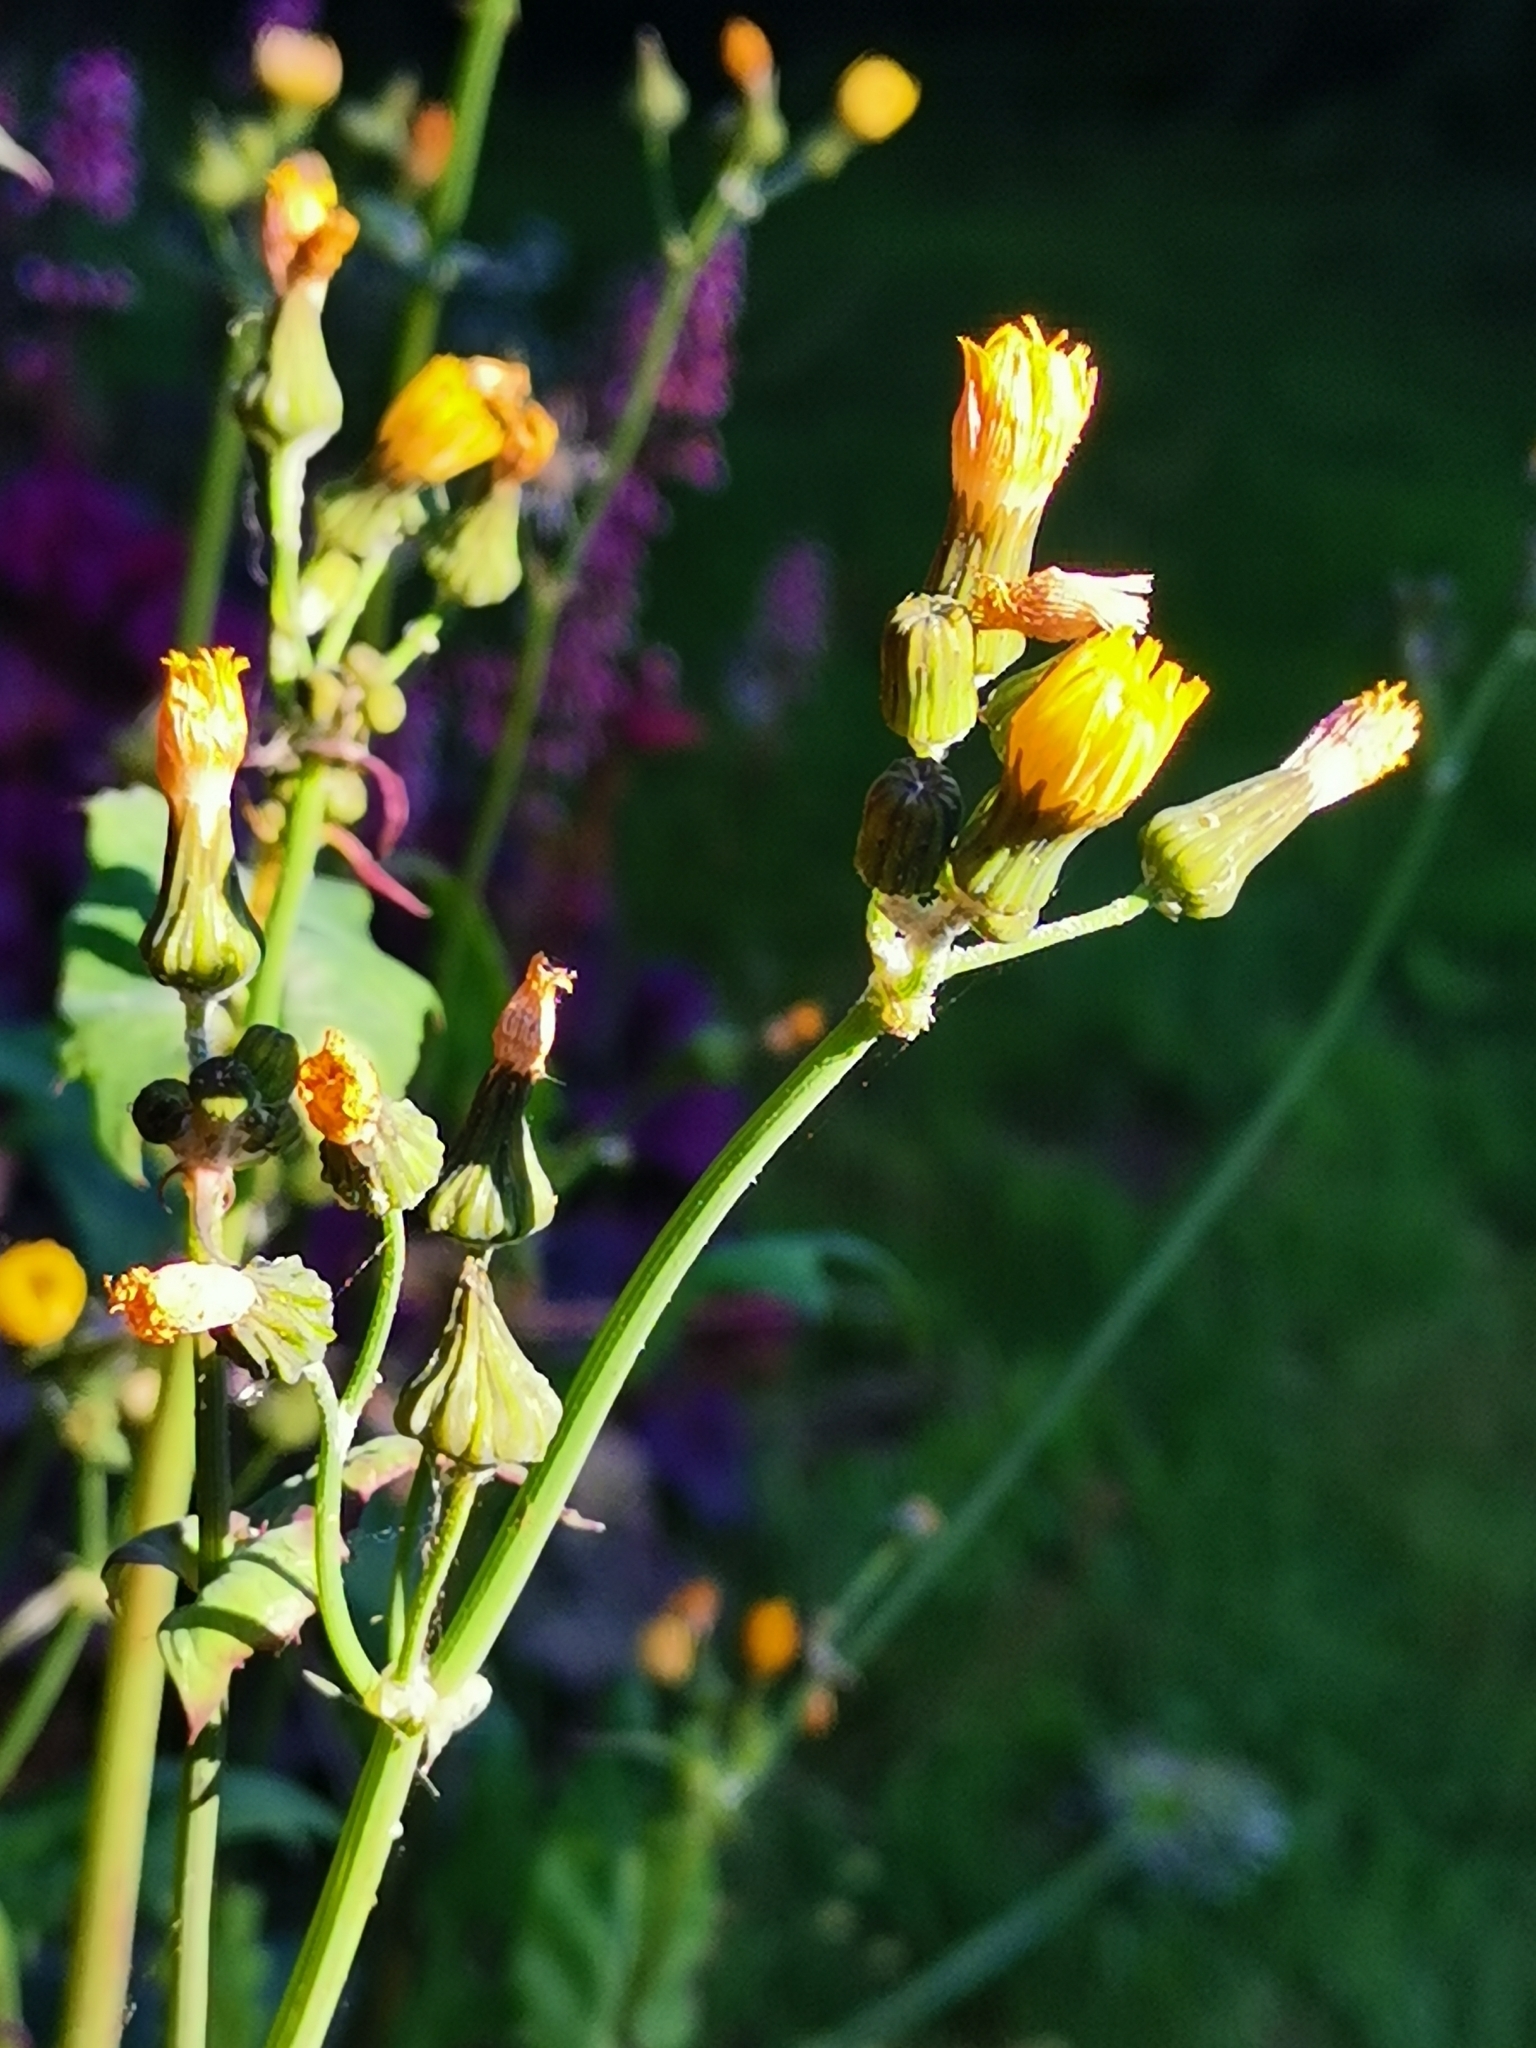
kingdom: Plantae
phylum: Tracheophyta
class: Magnoliopsida
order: Asterales
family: Asteraceae
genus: Sonchus
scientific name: Sonchus oleraceus
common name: Common sowthistle
